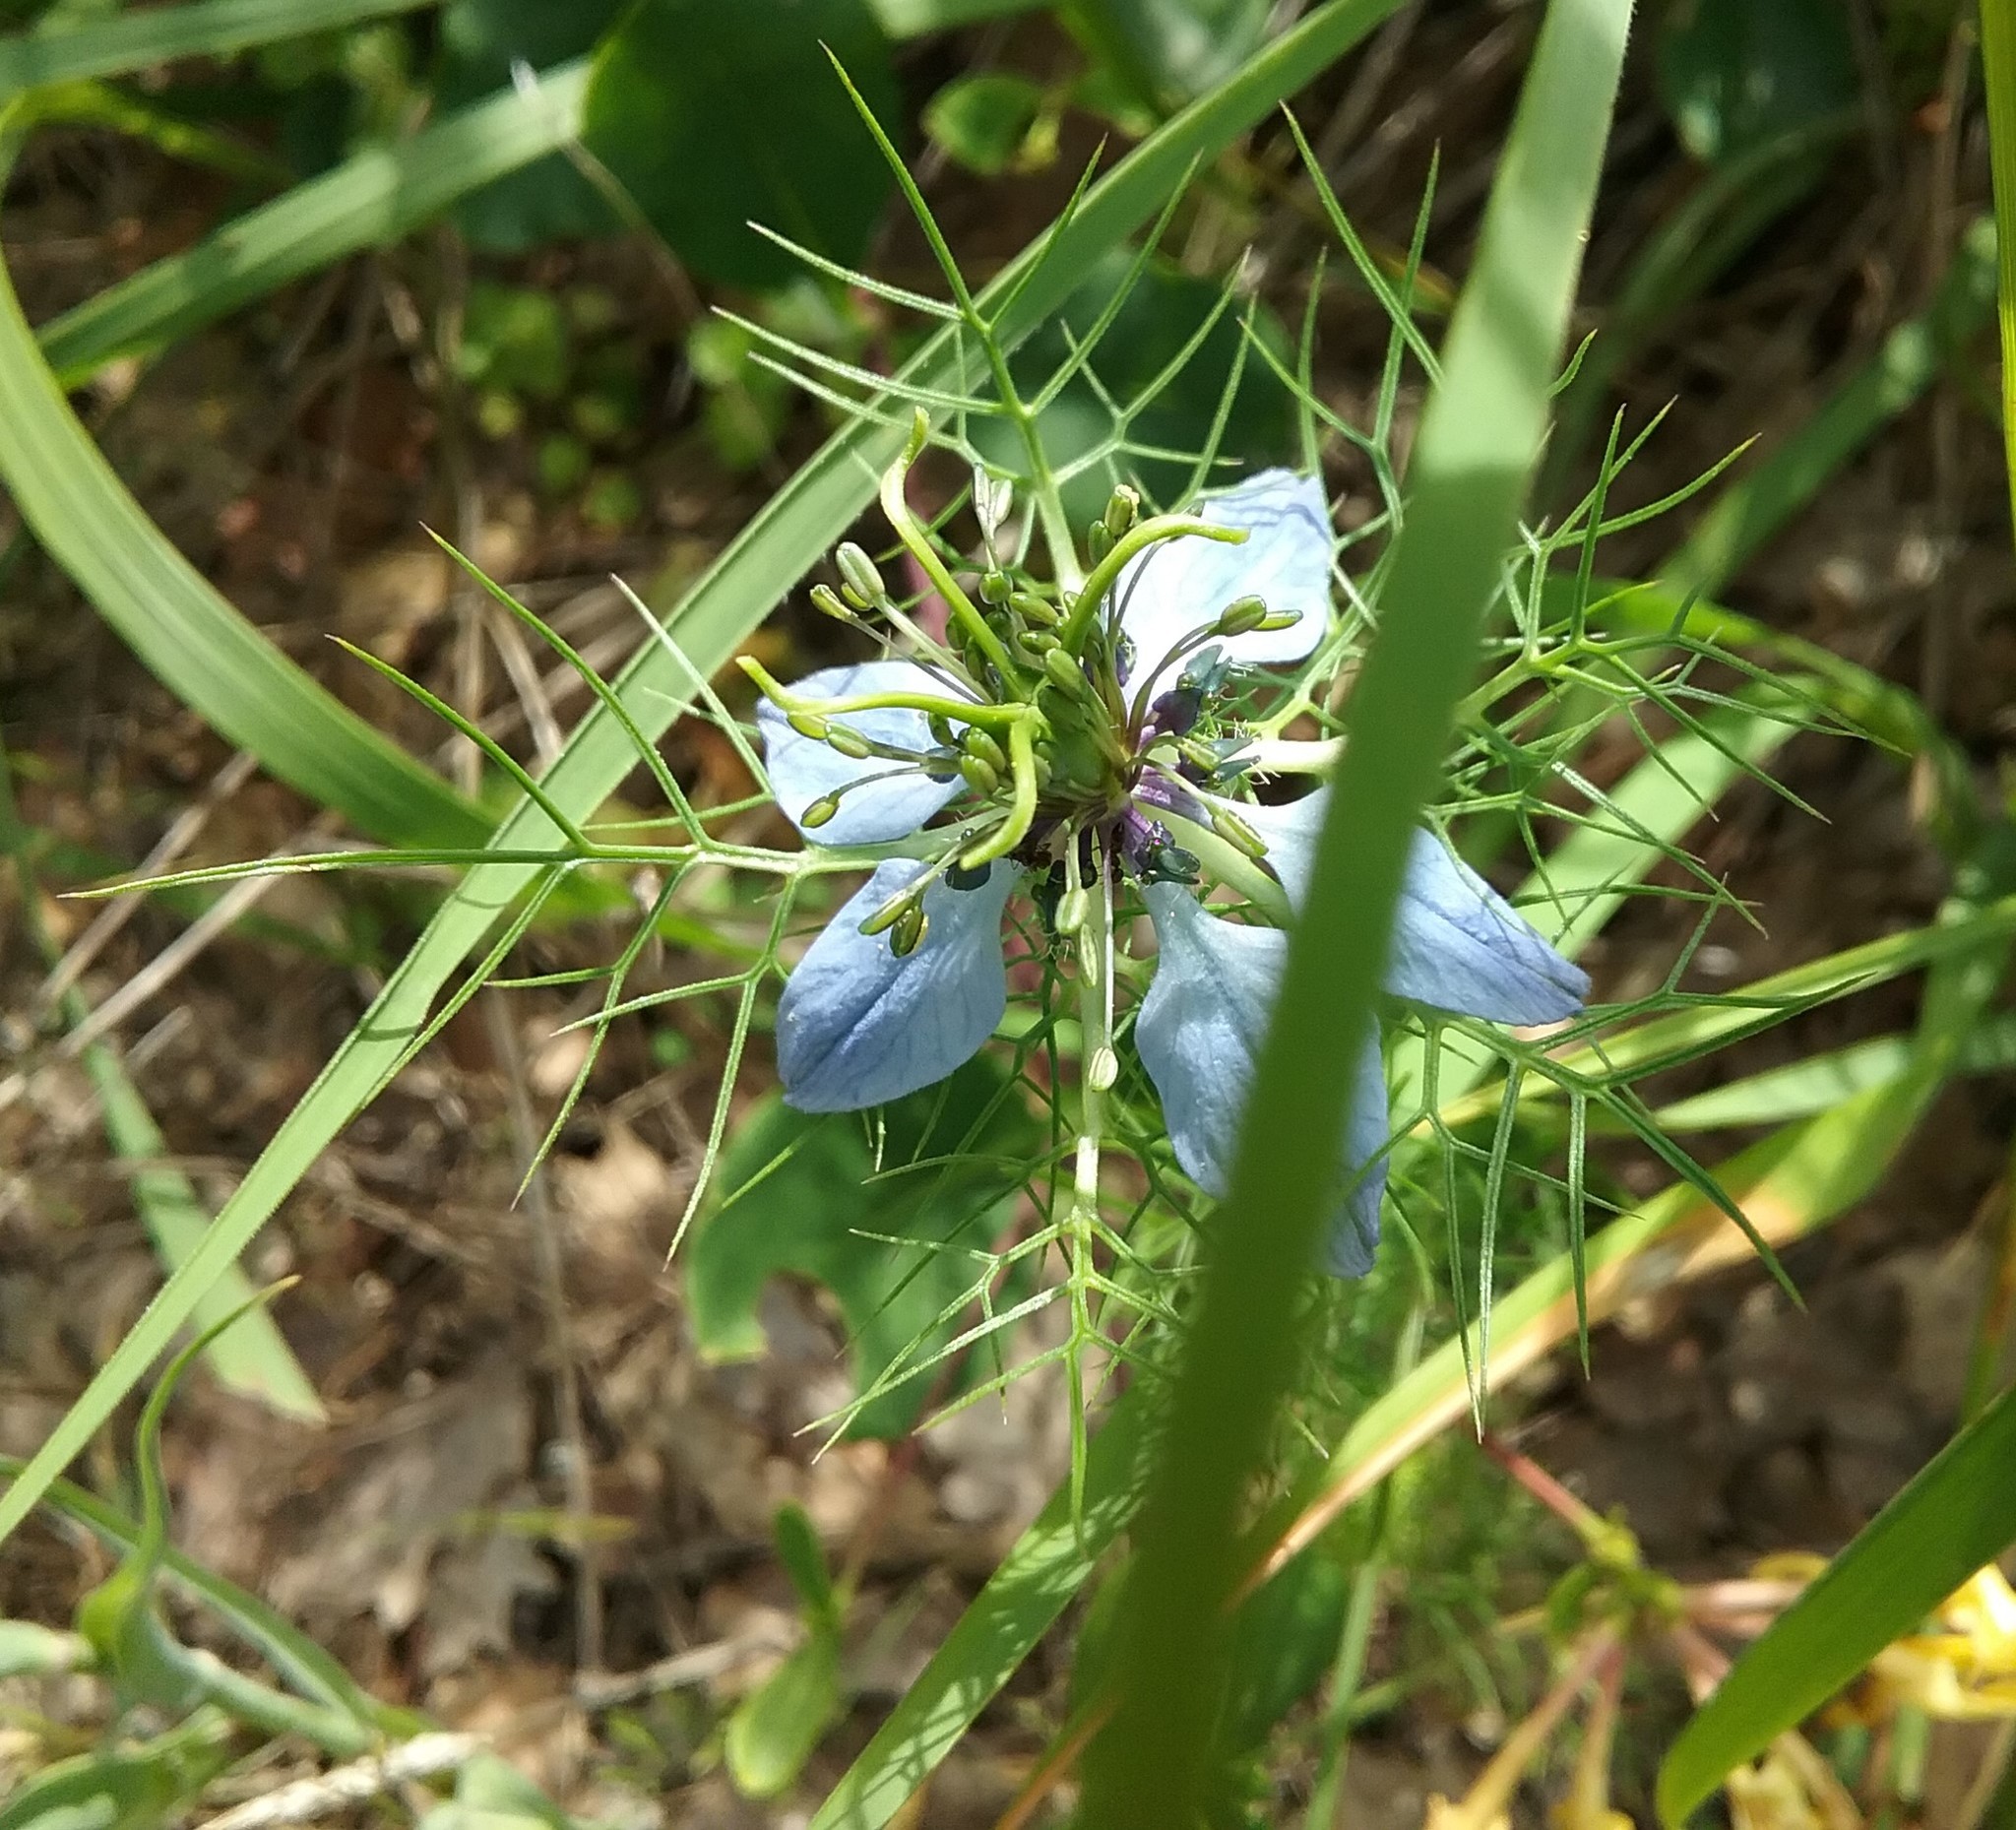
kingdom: Plantae
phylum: Tracheophyta
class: Magnoliopsida
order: Ranunculales
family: Ranunculaceae
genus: Nigella
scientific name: Nigella damascena
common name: Love-in-a-mist
